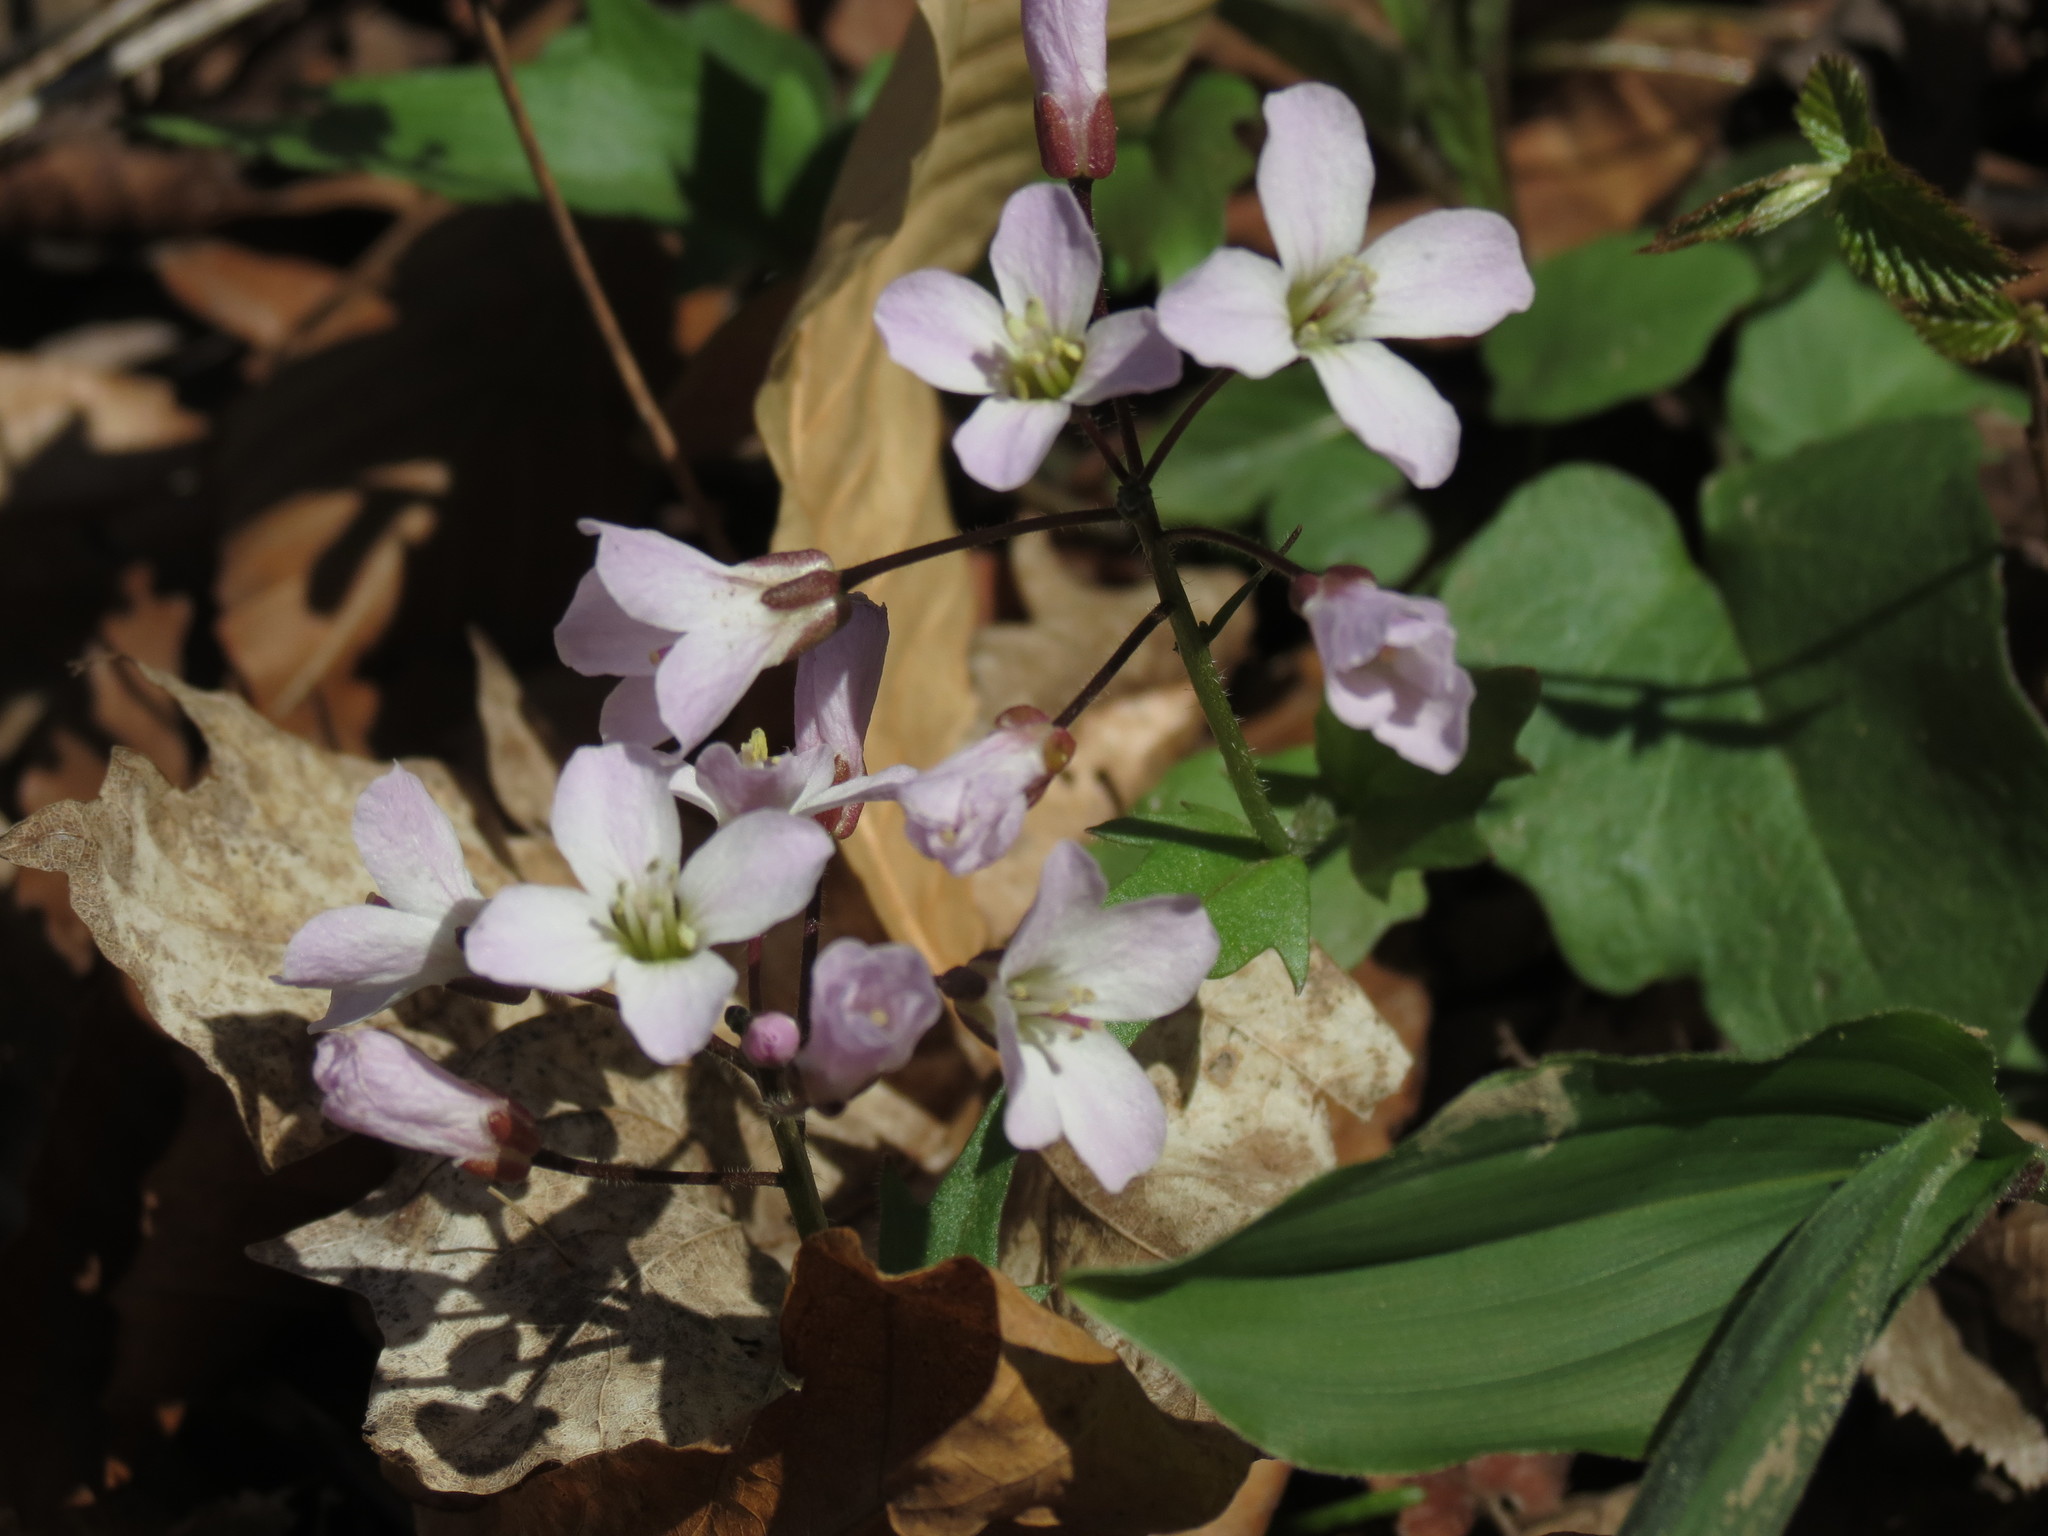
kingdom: Plantae
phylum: Tracheophyta
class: Magnoliopsida
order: Brassicales
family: Brassicaceae
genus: Cardamine
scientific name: Cardamine douglassii
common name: Purple cress
